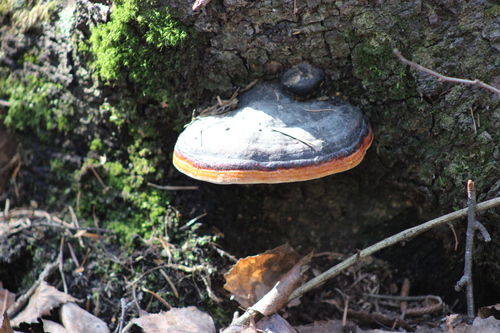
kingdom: Fungi
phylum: Basidiomycota
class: Agaricomycetes
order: Polyporales
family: Fomitopsidaceae
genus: Fomitopsis
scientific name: Fomitopsis pinicola
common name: Red-belted bracket
